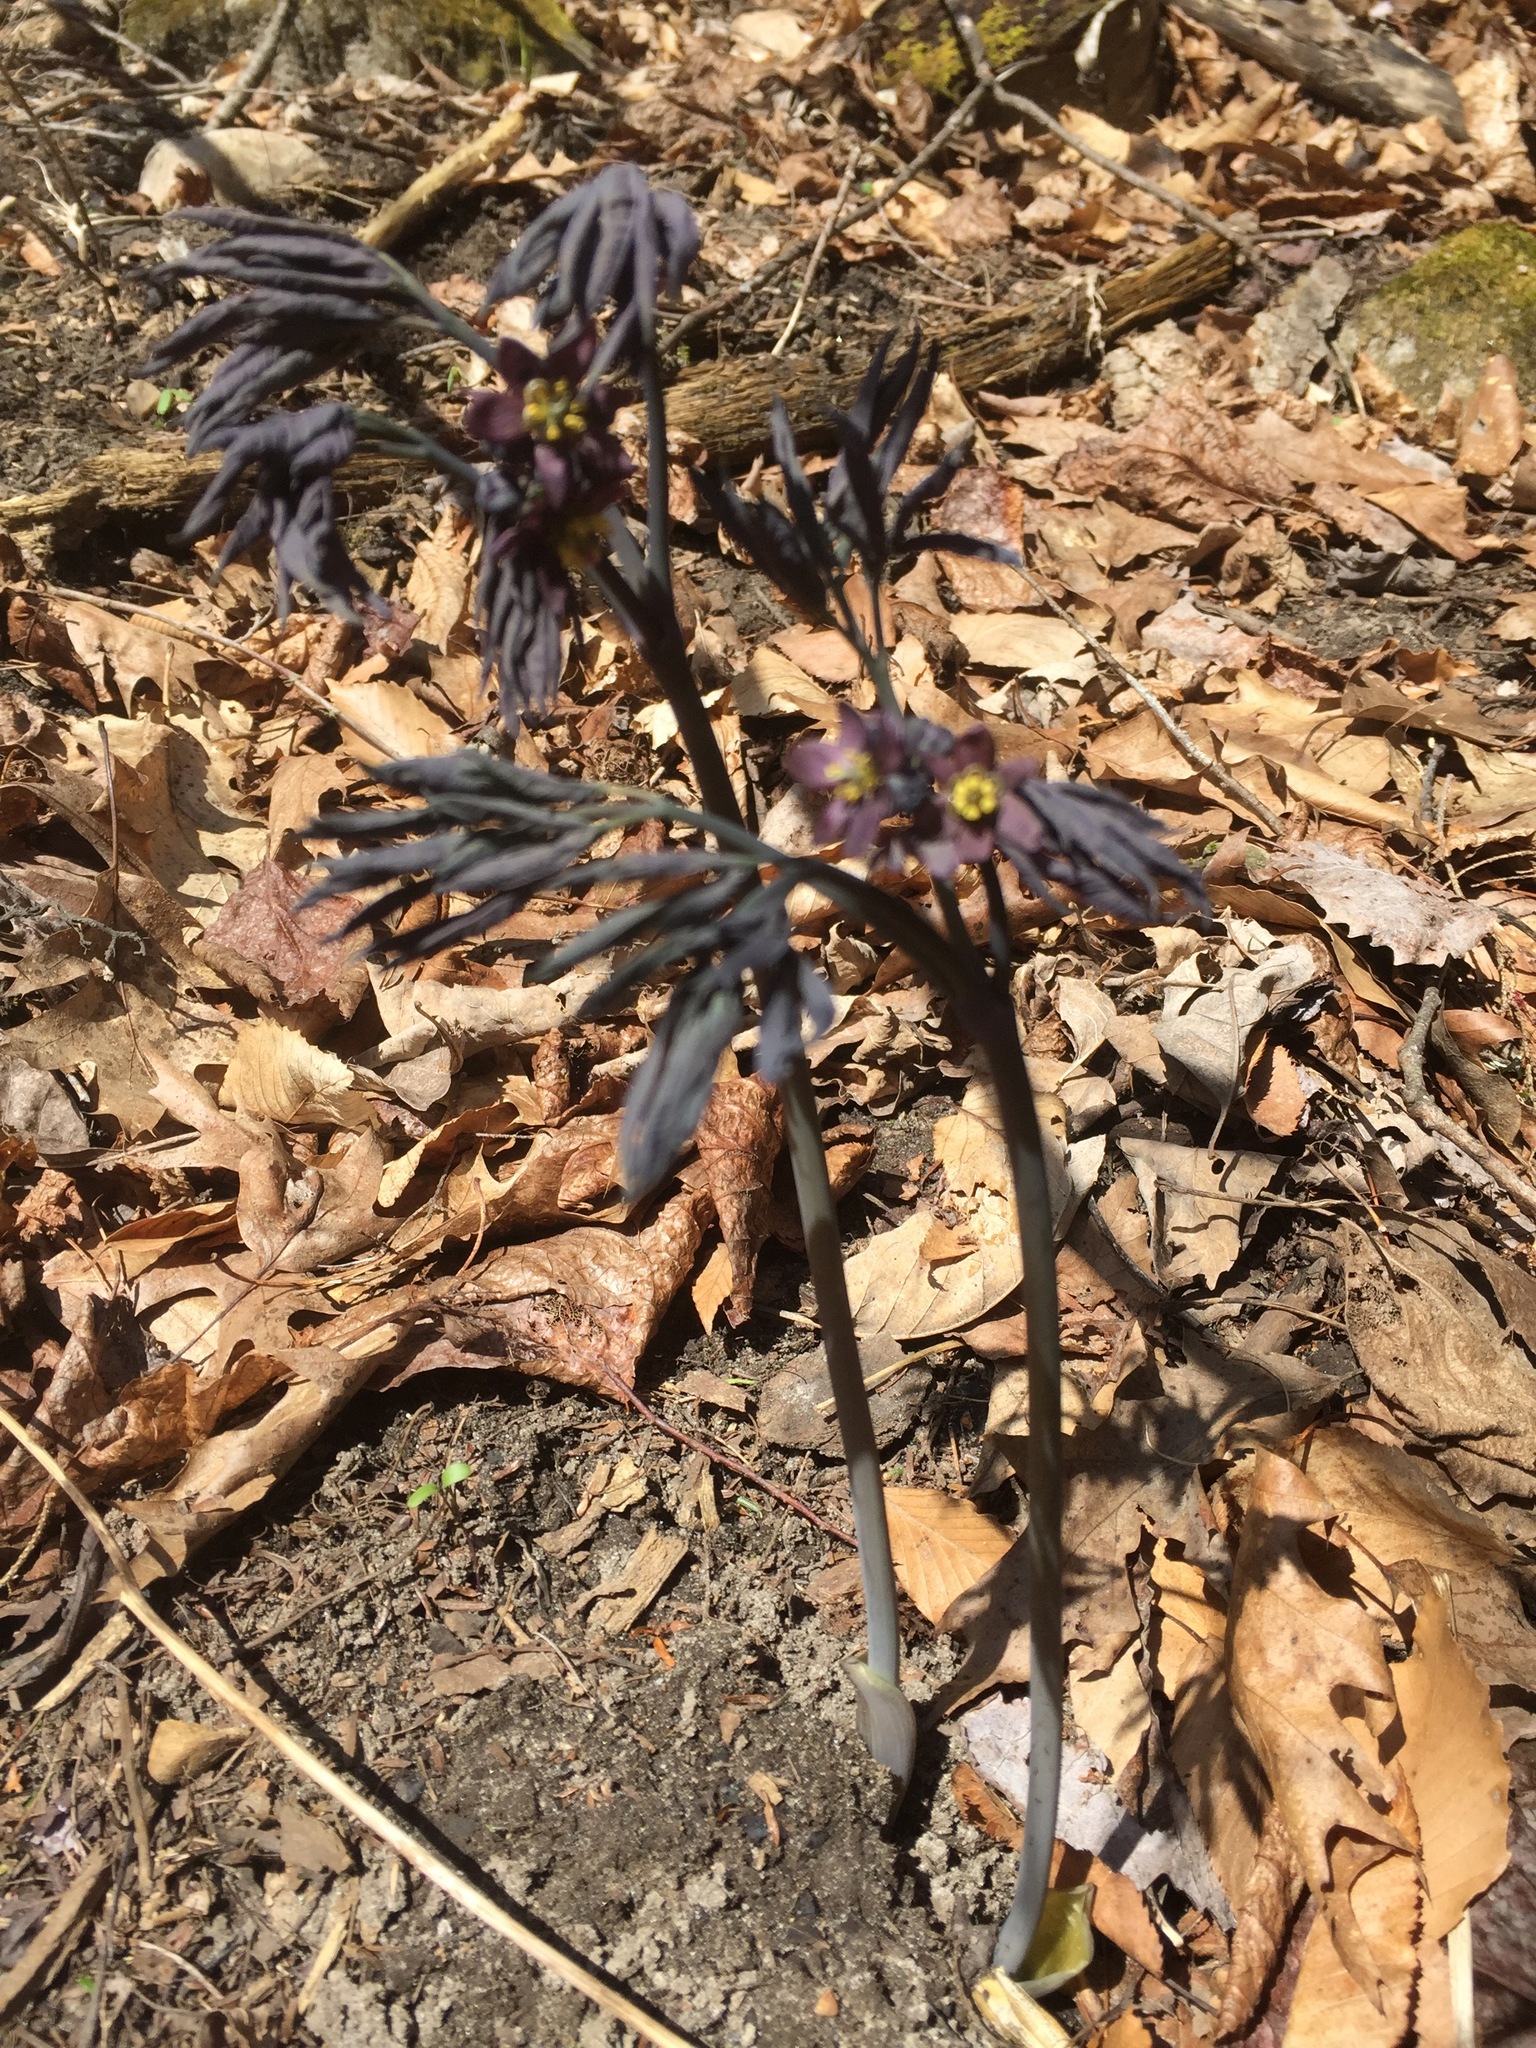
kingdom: Plantae
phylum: Tracheophyta
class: Magnoliopsida
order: Ranunculales
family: Berberidaceae
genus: Caulophyllum
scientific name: Caulophyllum giganteum
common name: Blue cohosh
